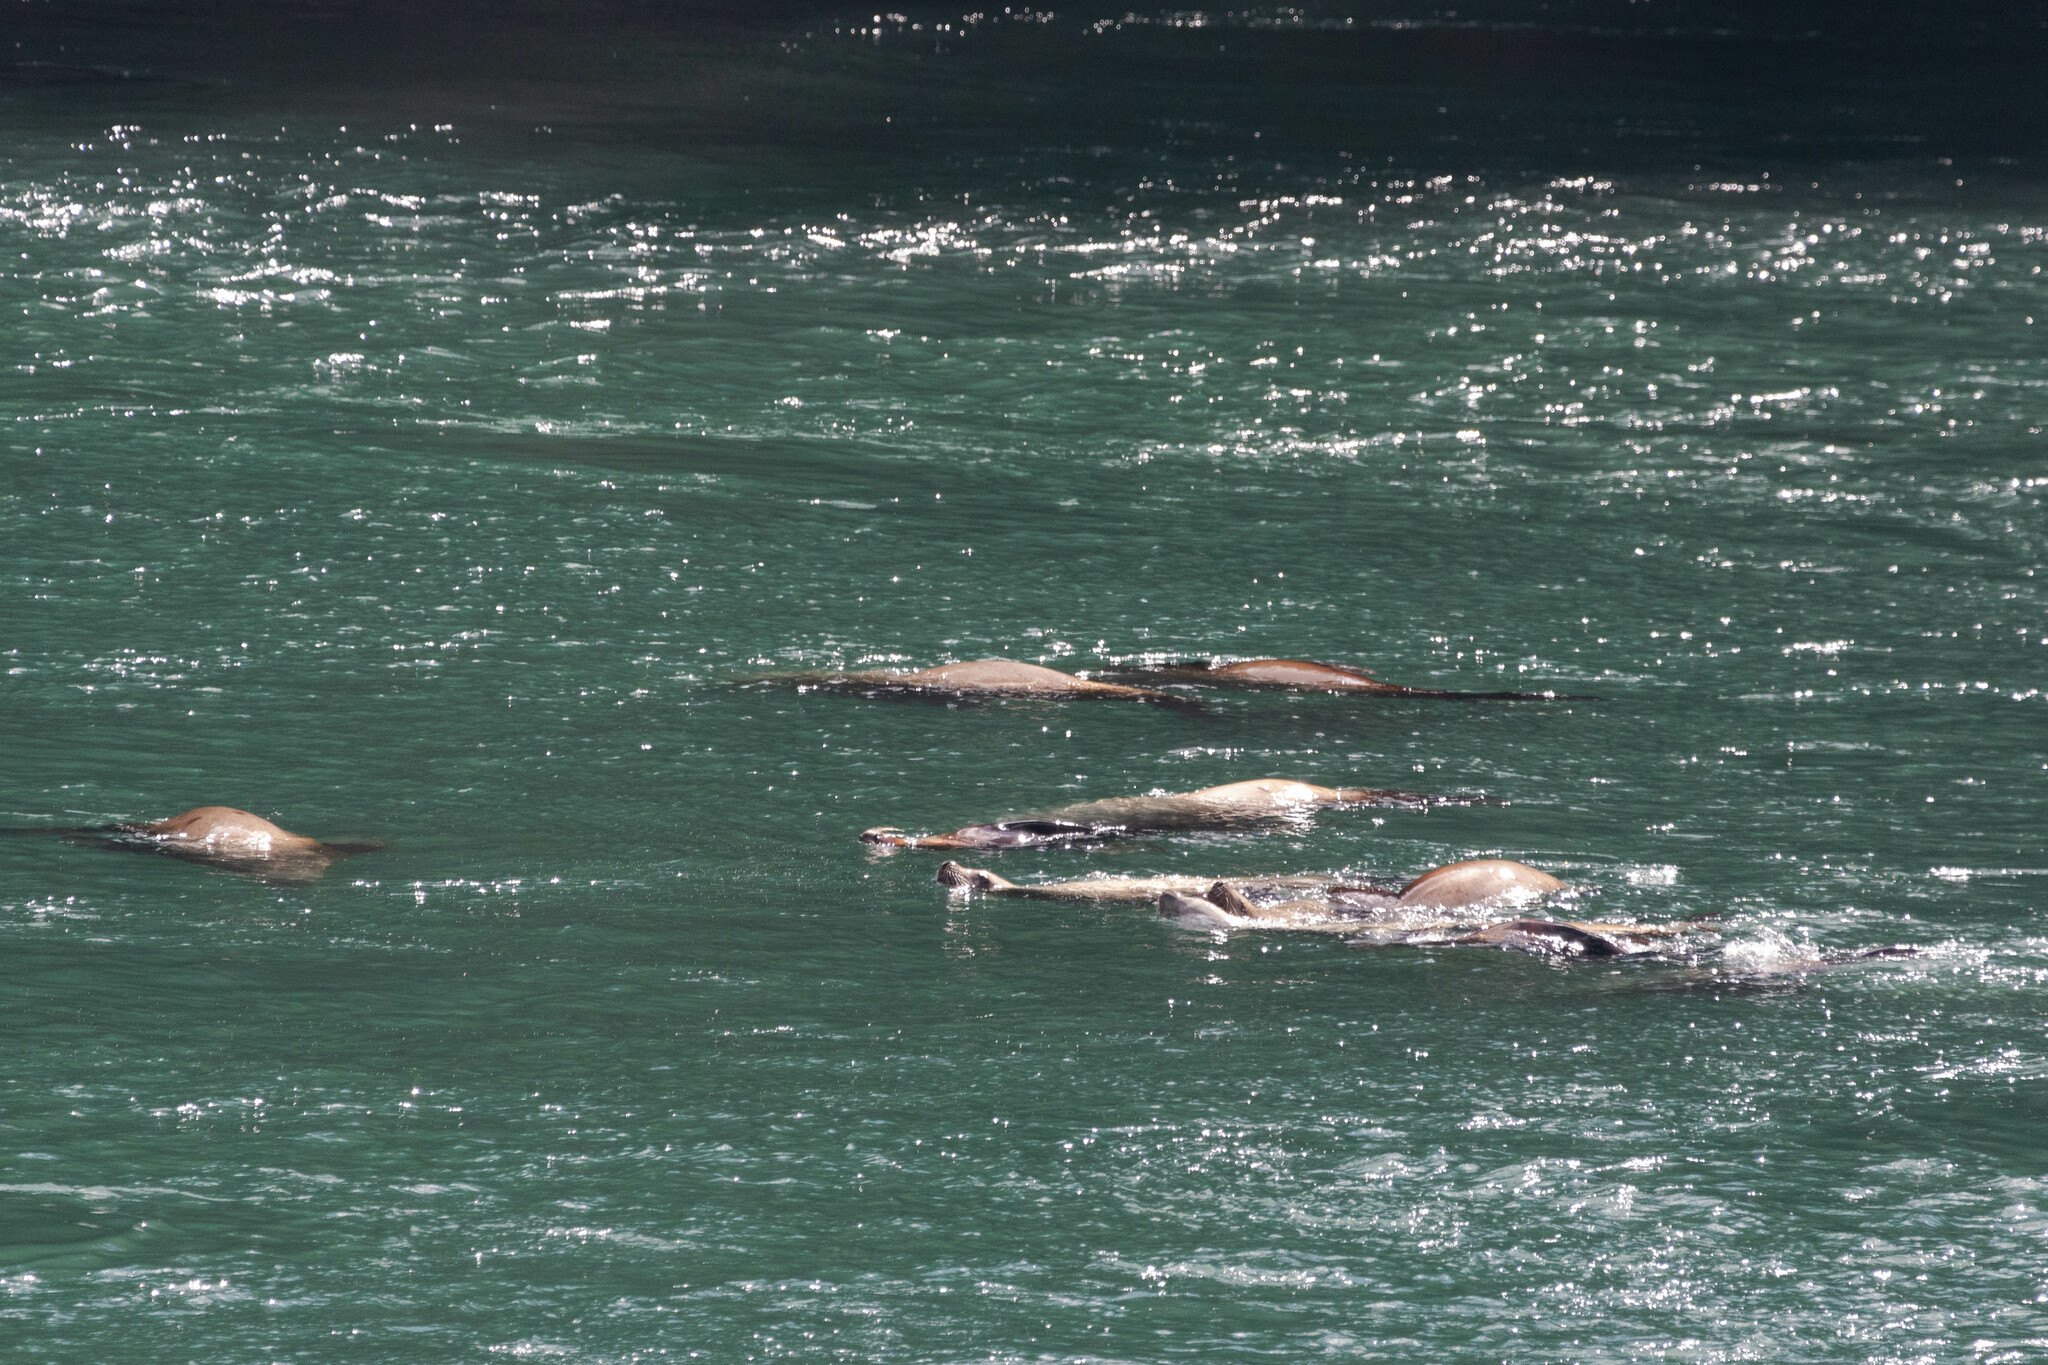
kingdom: Animalia
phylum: Chordata
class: Mammalia
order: Carnivora
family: Otariidae
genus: Eumetopias
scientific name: Eumetopias jubatus
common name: Steller sea lion
